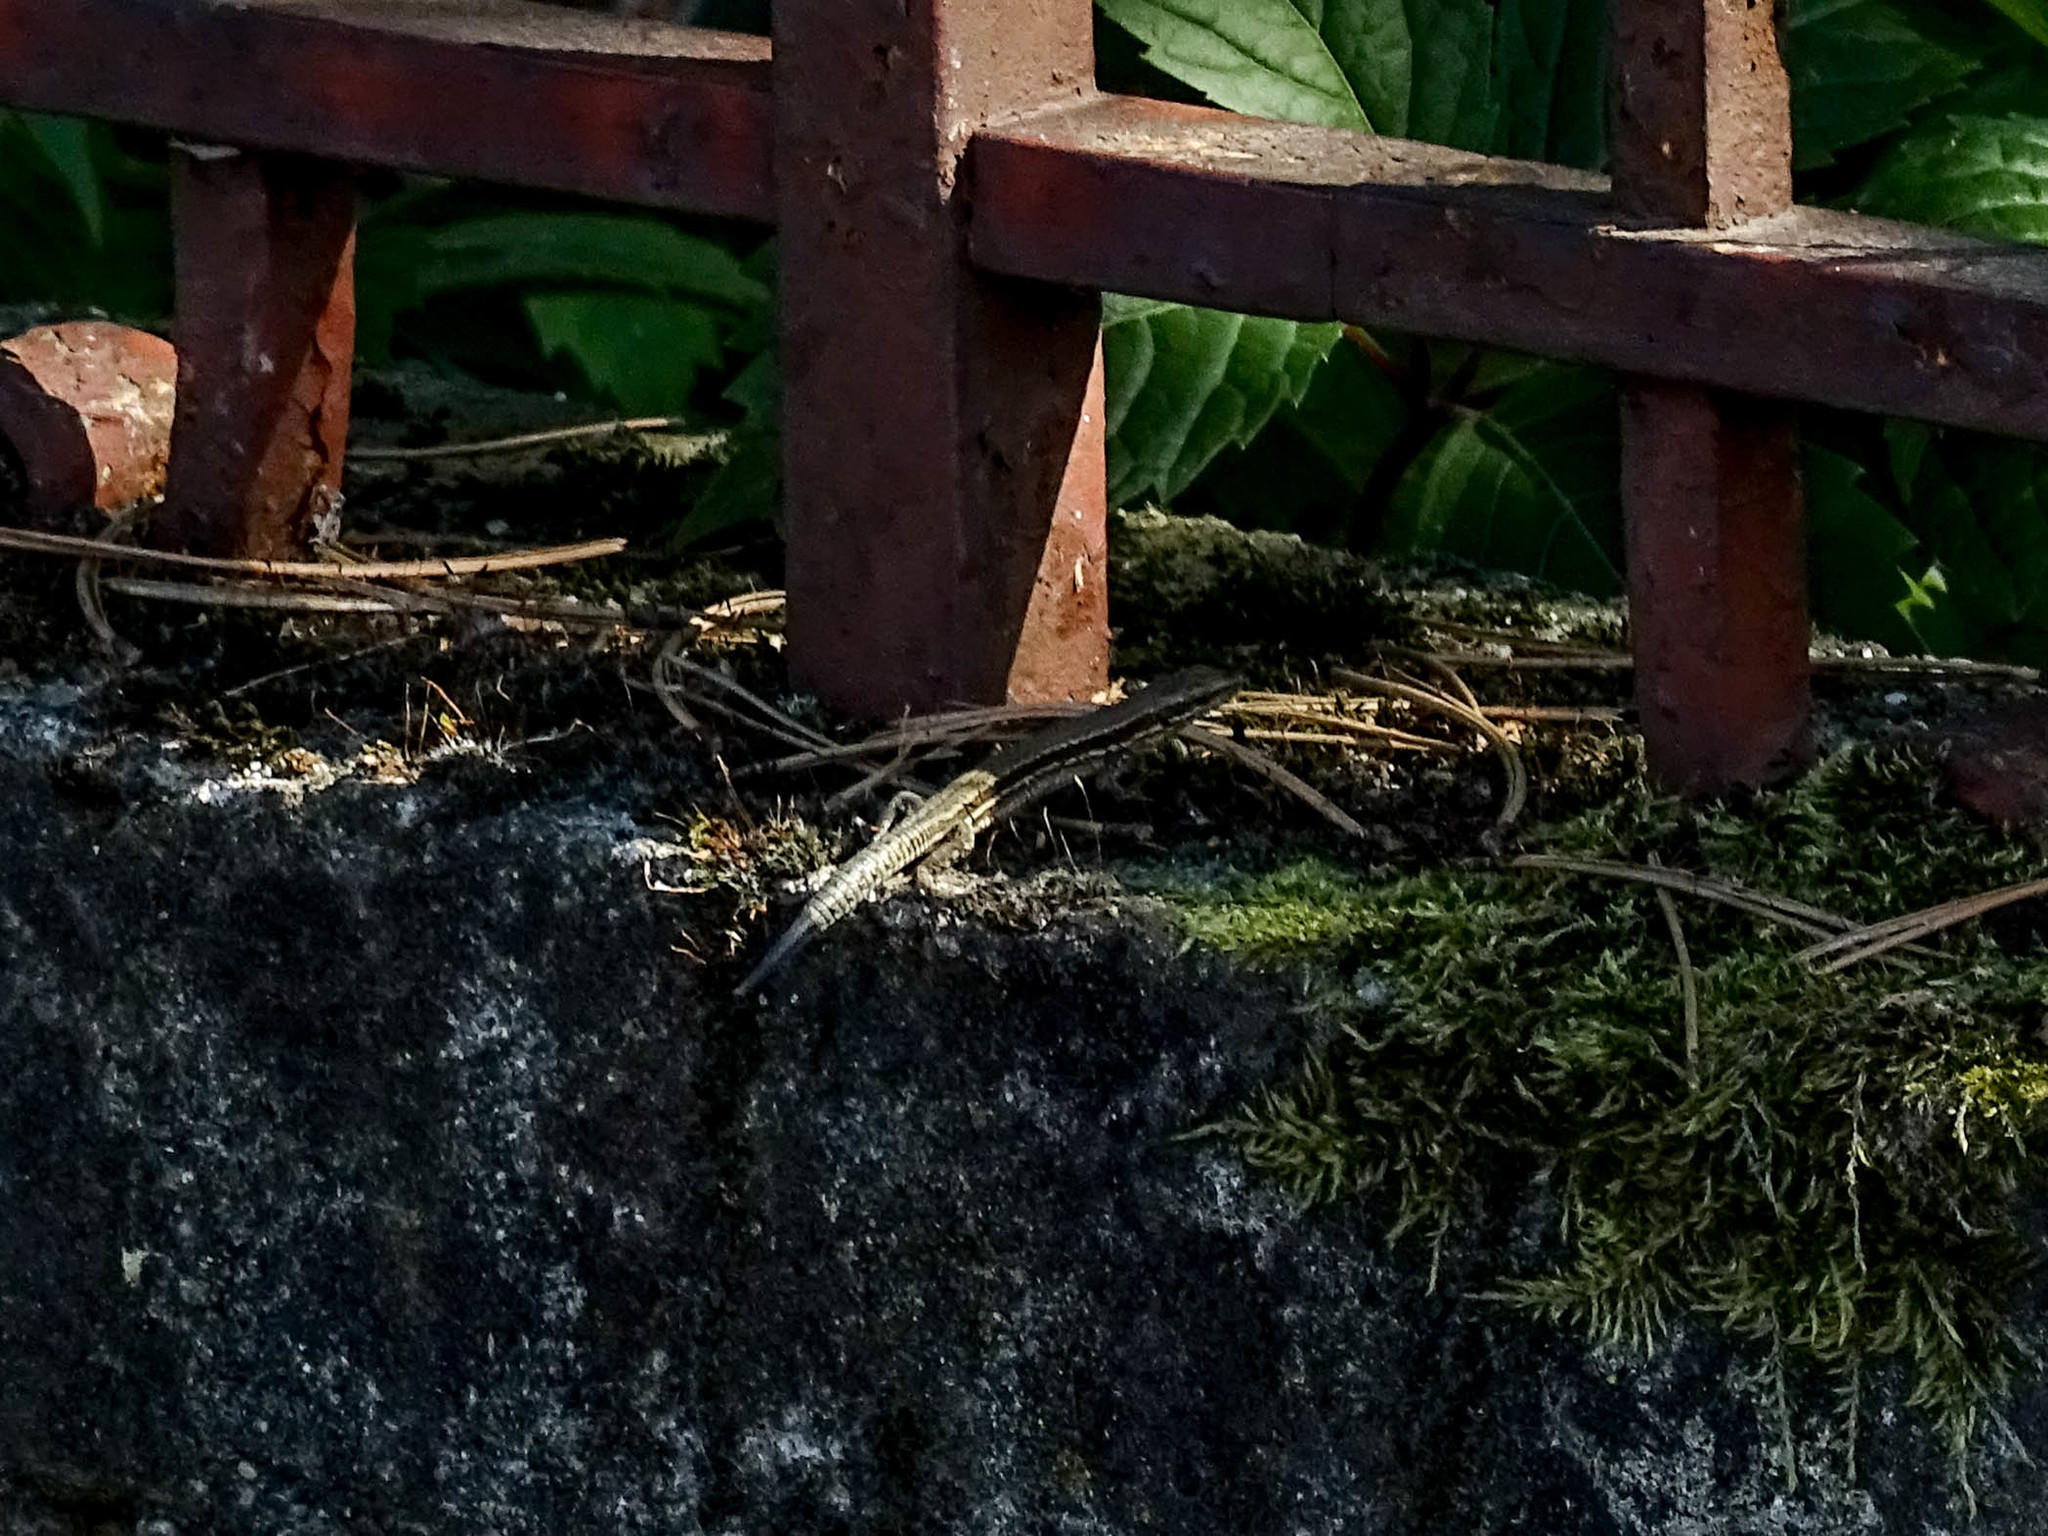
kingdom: Animalia
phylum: Chordata
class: Squamata
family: Lacertidae
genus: Podarcis
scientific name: Podarcis muralis
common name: Common wall lizard
